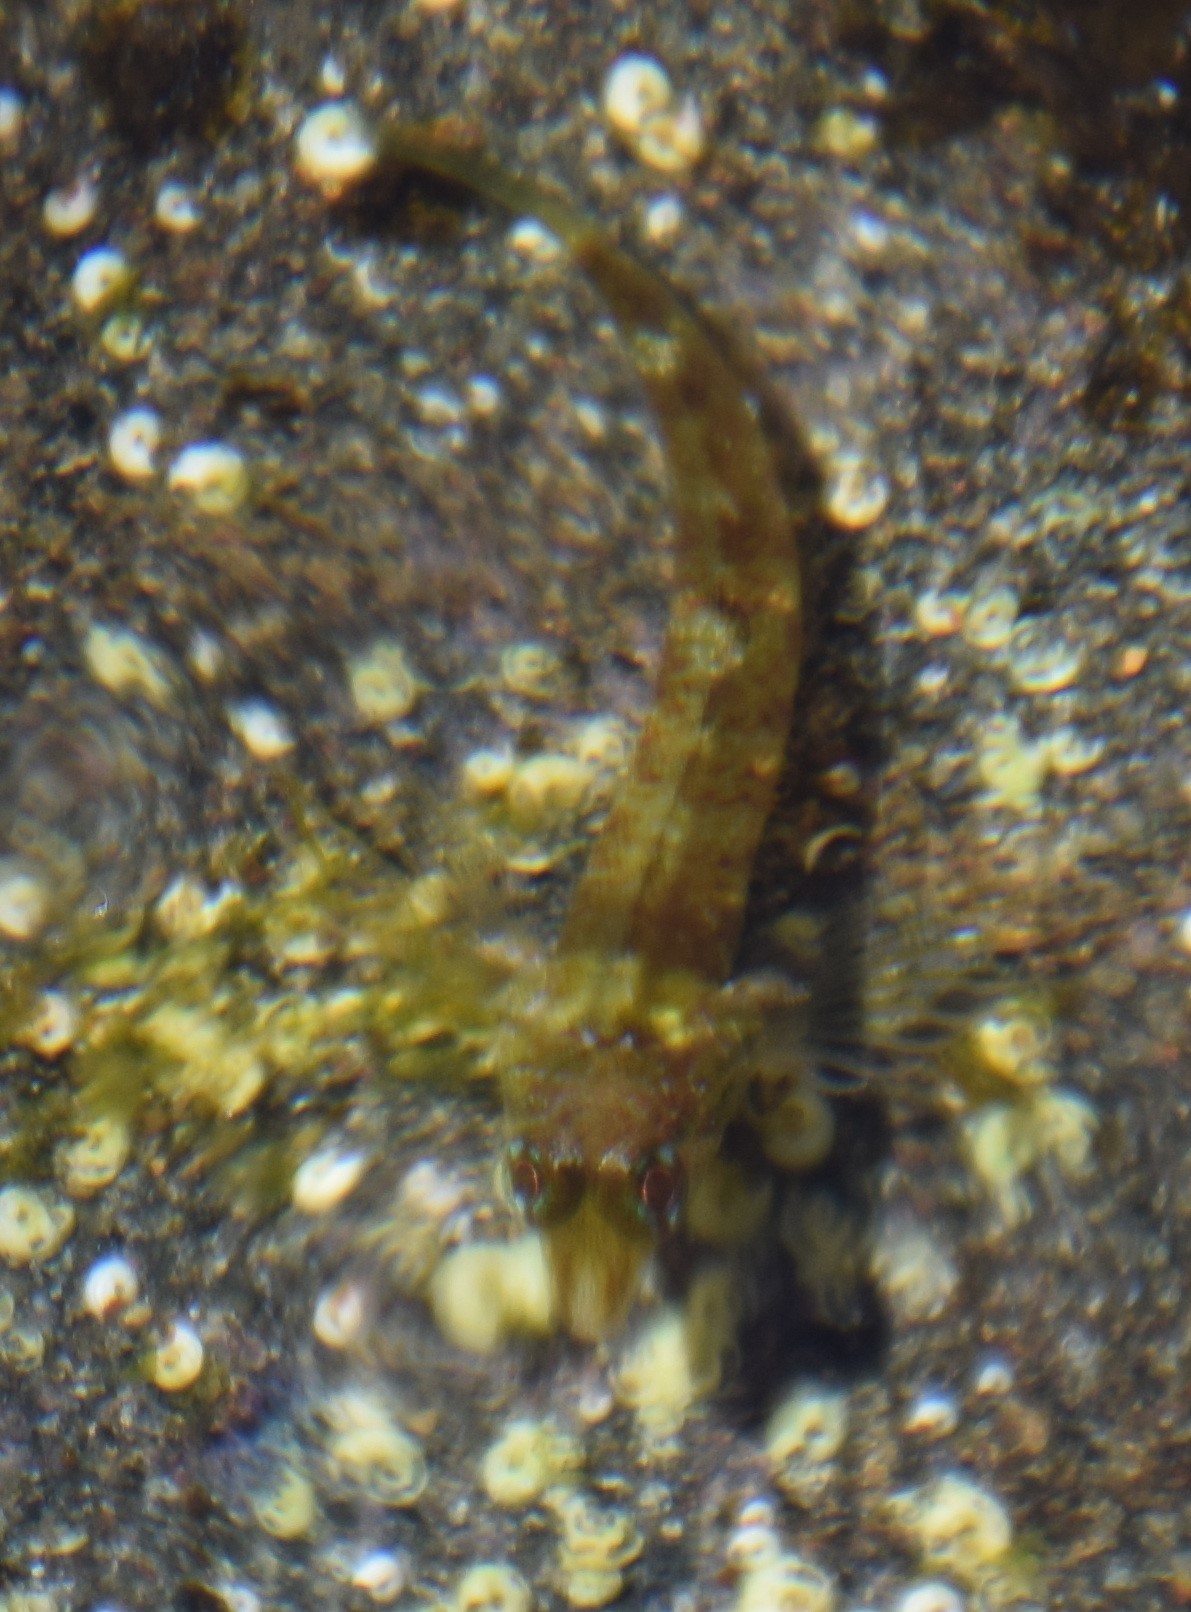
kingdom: Animalia
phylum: Chordata
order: Perciformes
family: Tripterygiidae
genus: Enneapterygius
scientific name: Enneapterygius atrogulare
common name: Blackthroat triplefin
